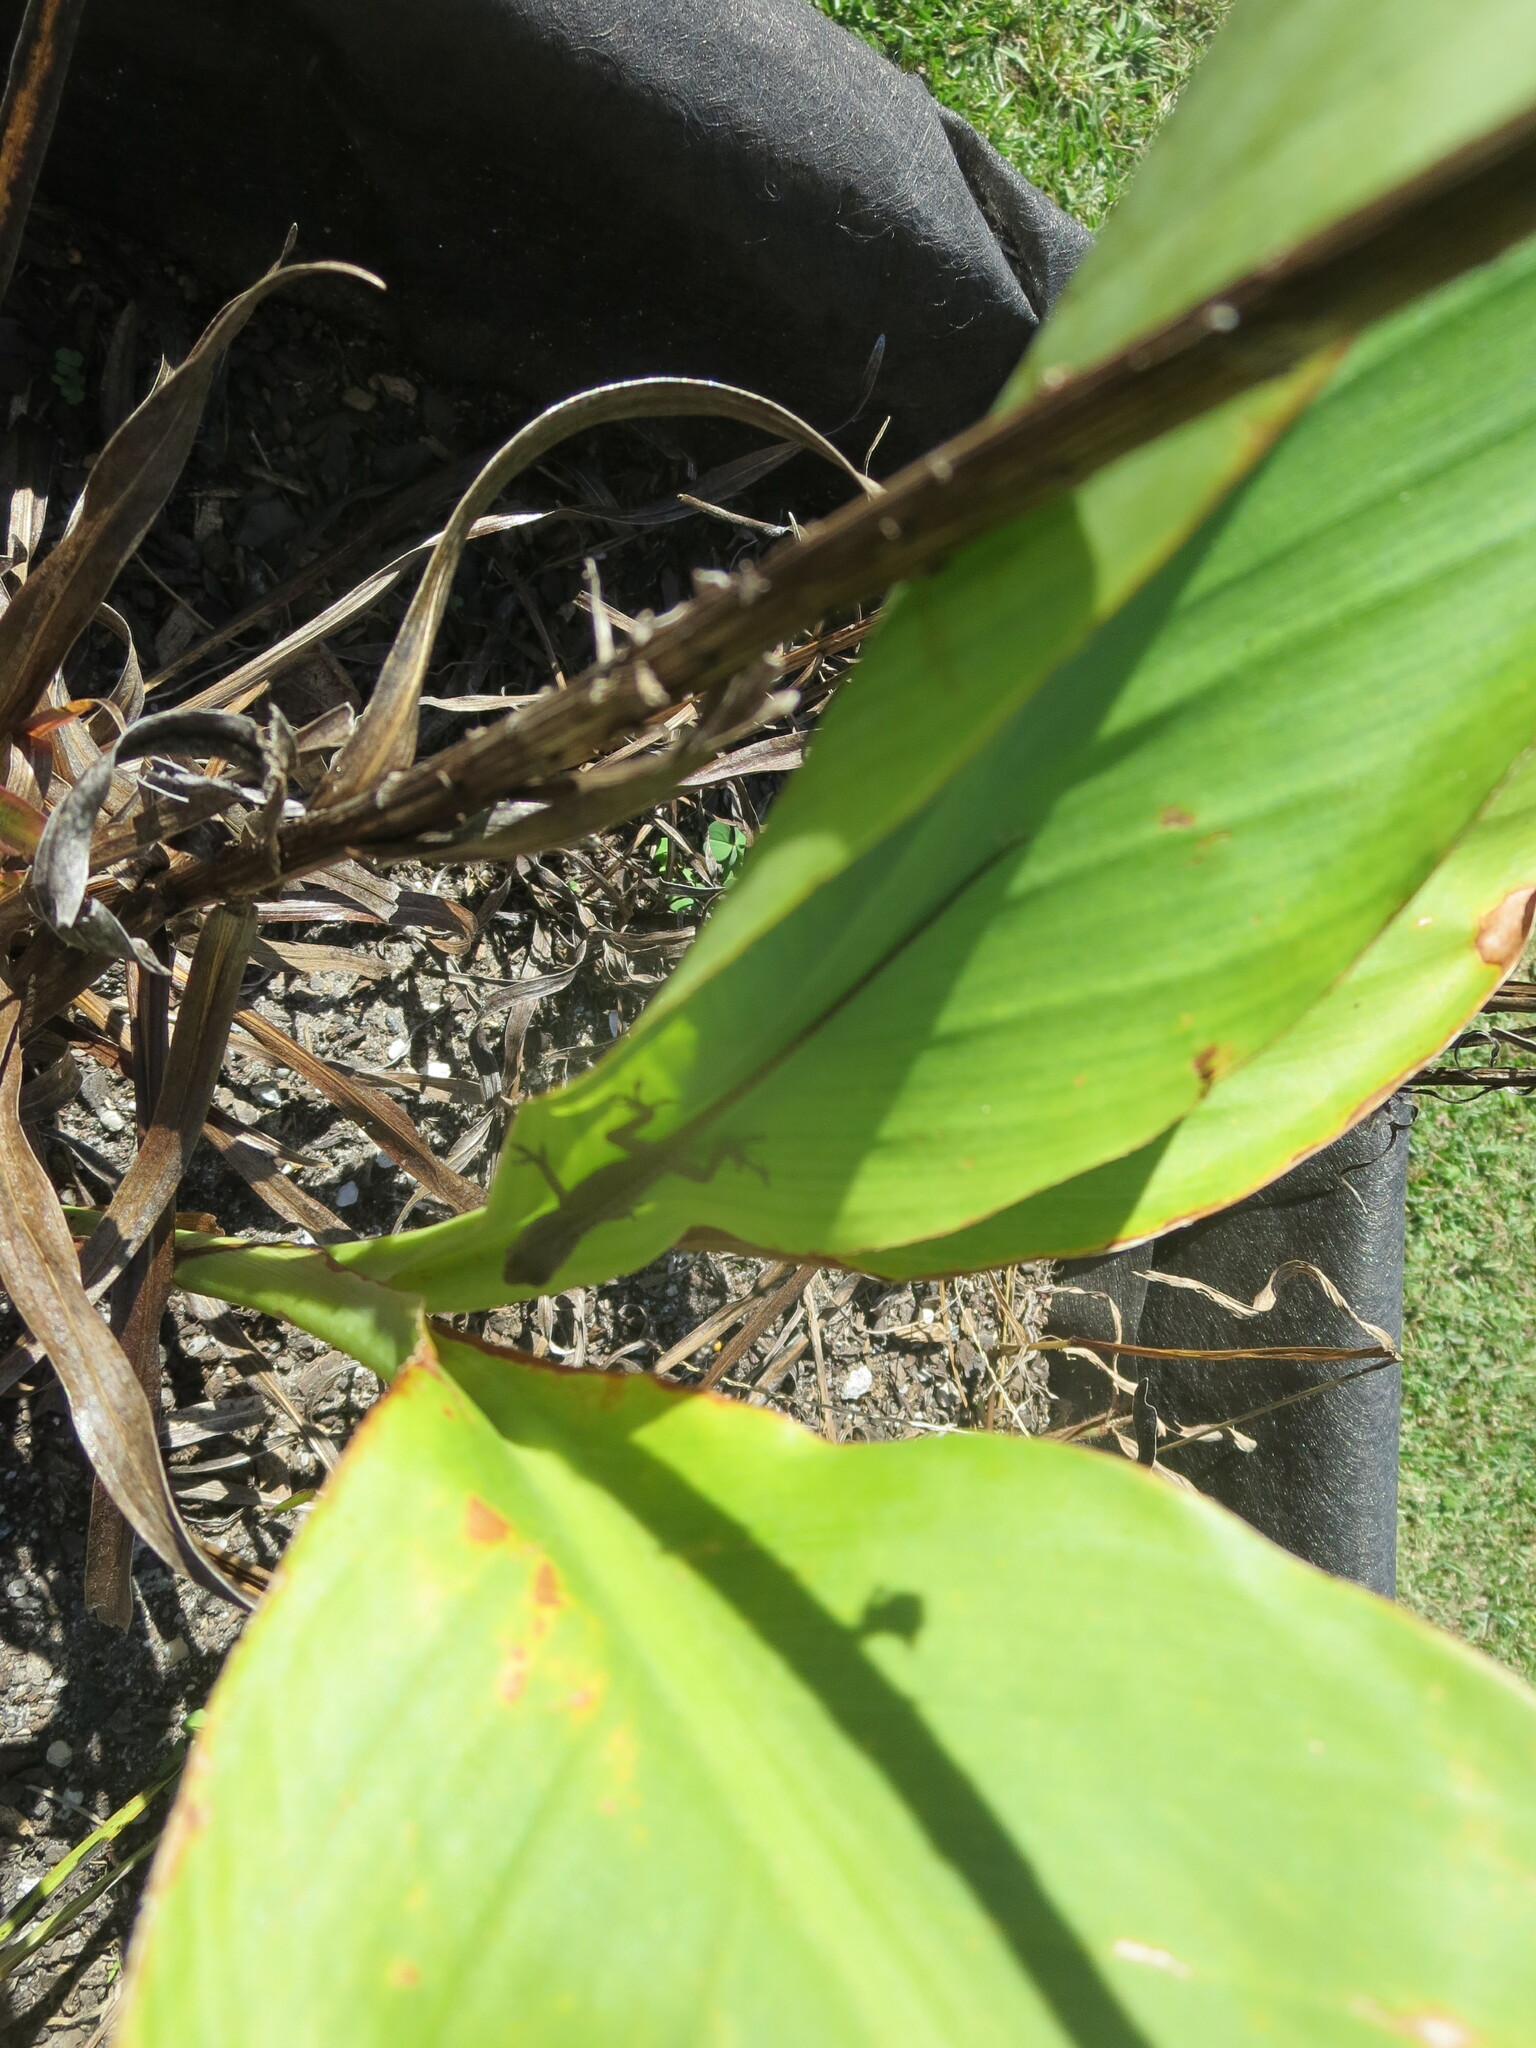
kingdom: Animalia
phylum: Chordata
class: Squamata
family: Dactyloidae
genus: Anolis
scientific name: Anolis carolinensis
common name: Green anole
